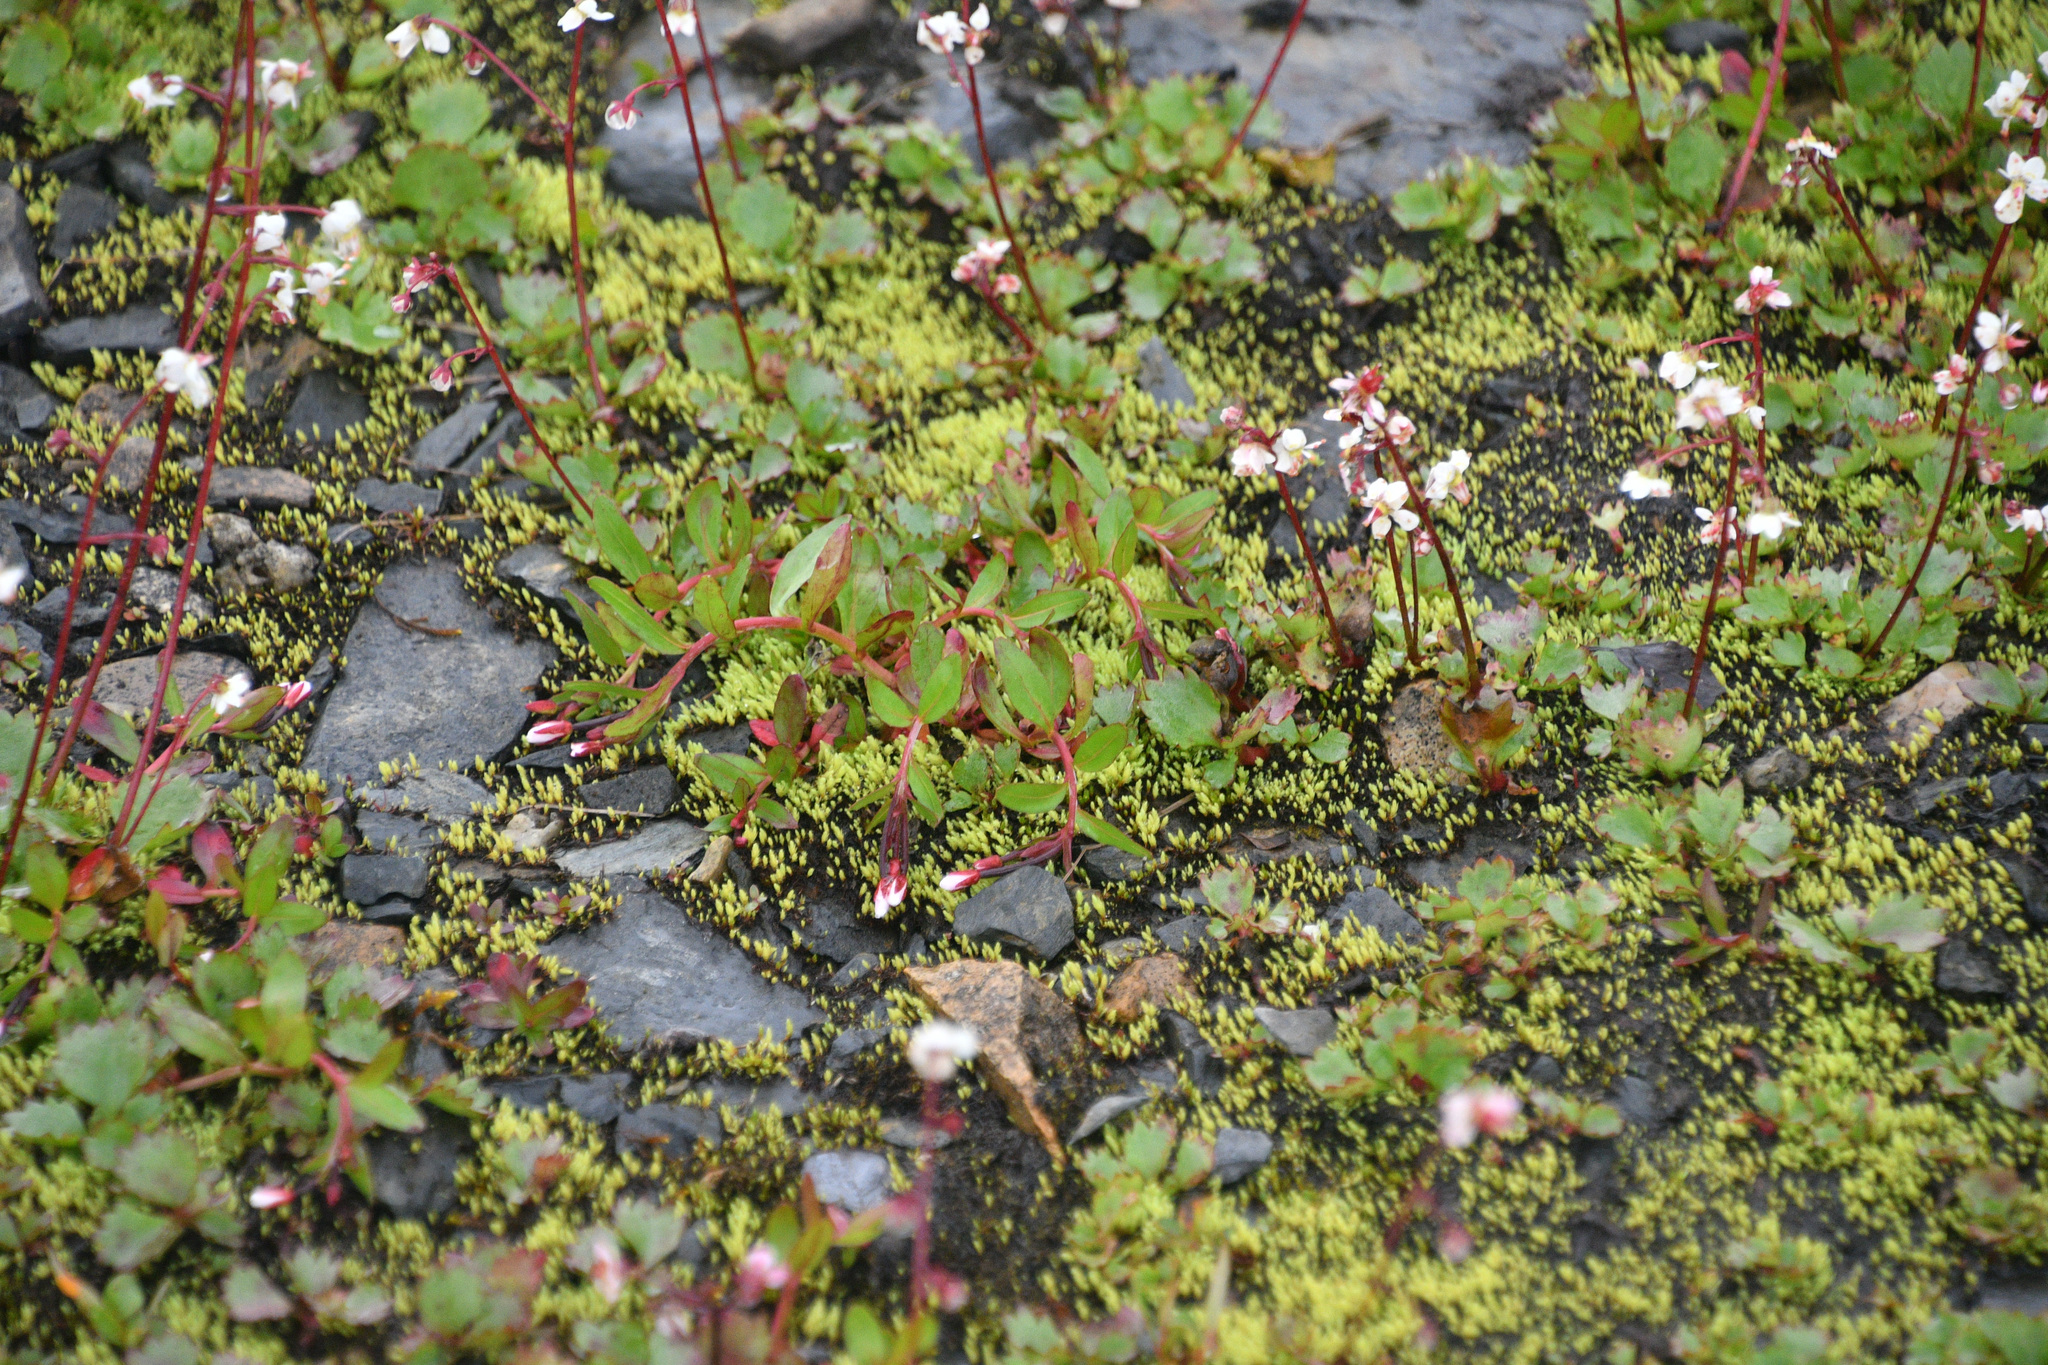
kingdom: Plantae
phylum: Tracheophyta
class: Magnoliopsida
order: Saxifragales
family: Saxifragaceae
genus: Micranthes
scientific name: Micranthes lyallii
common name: Lyall's saxifrage
